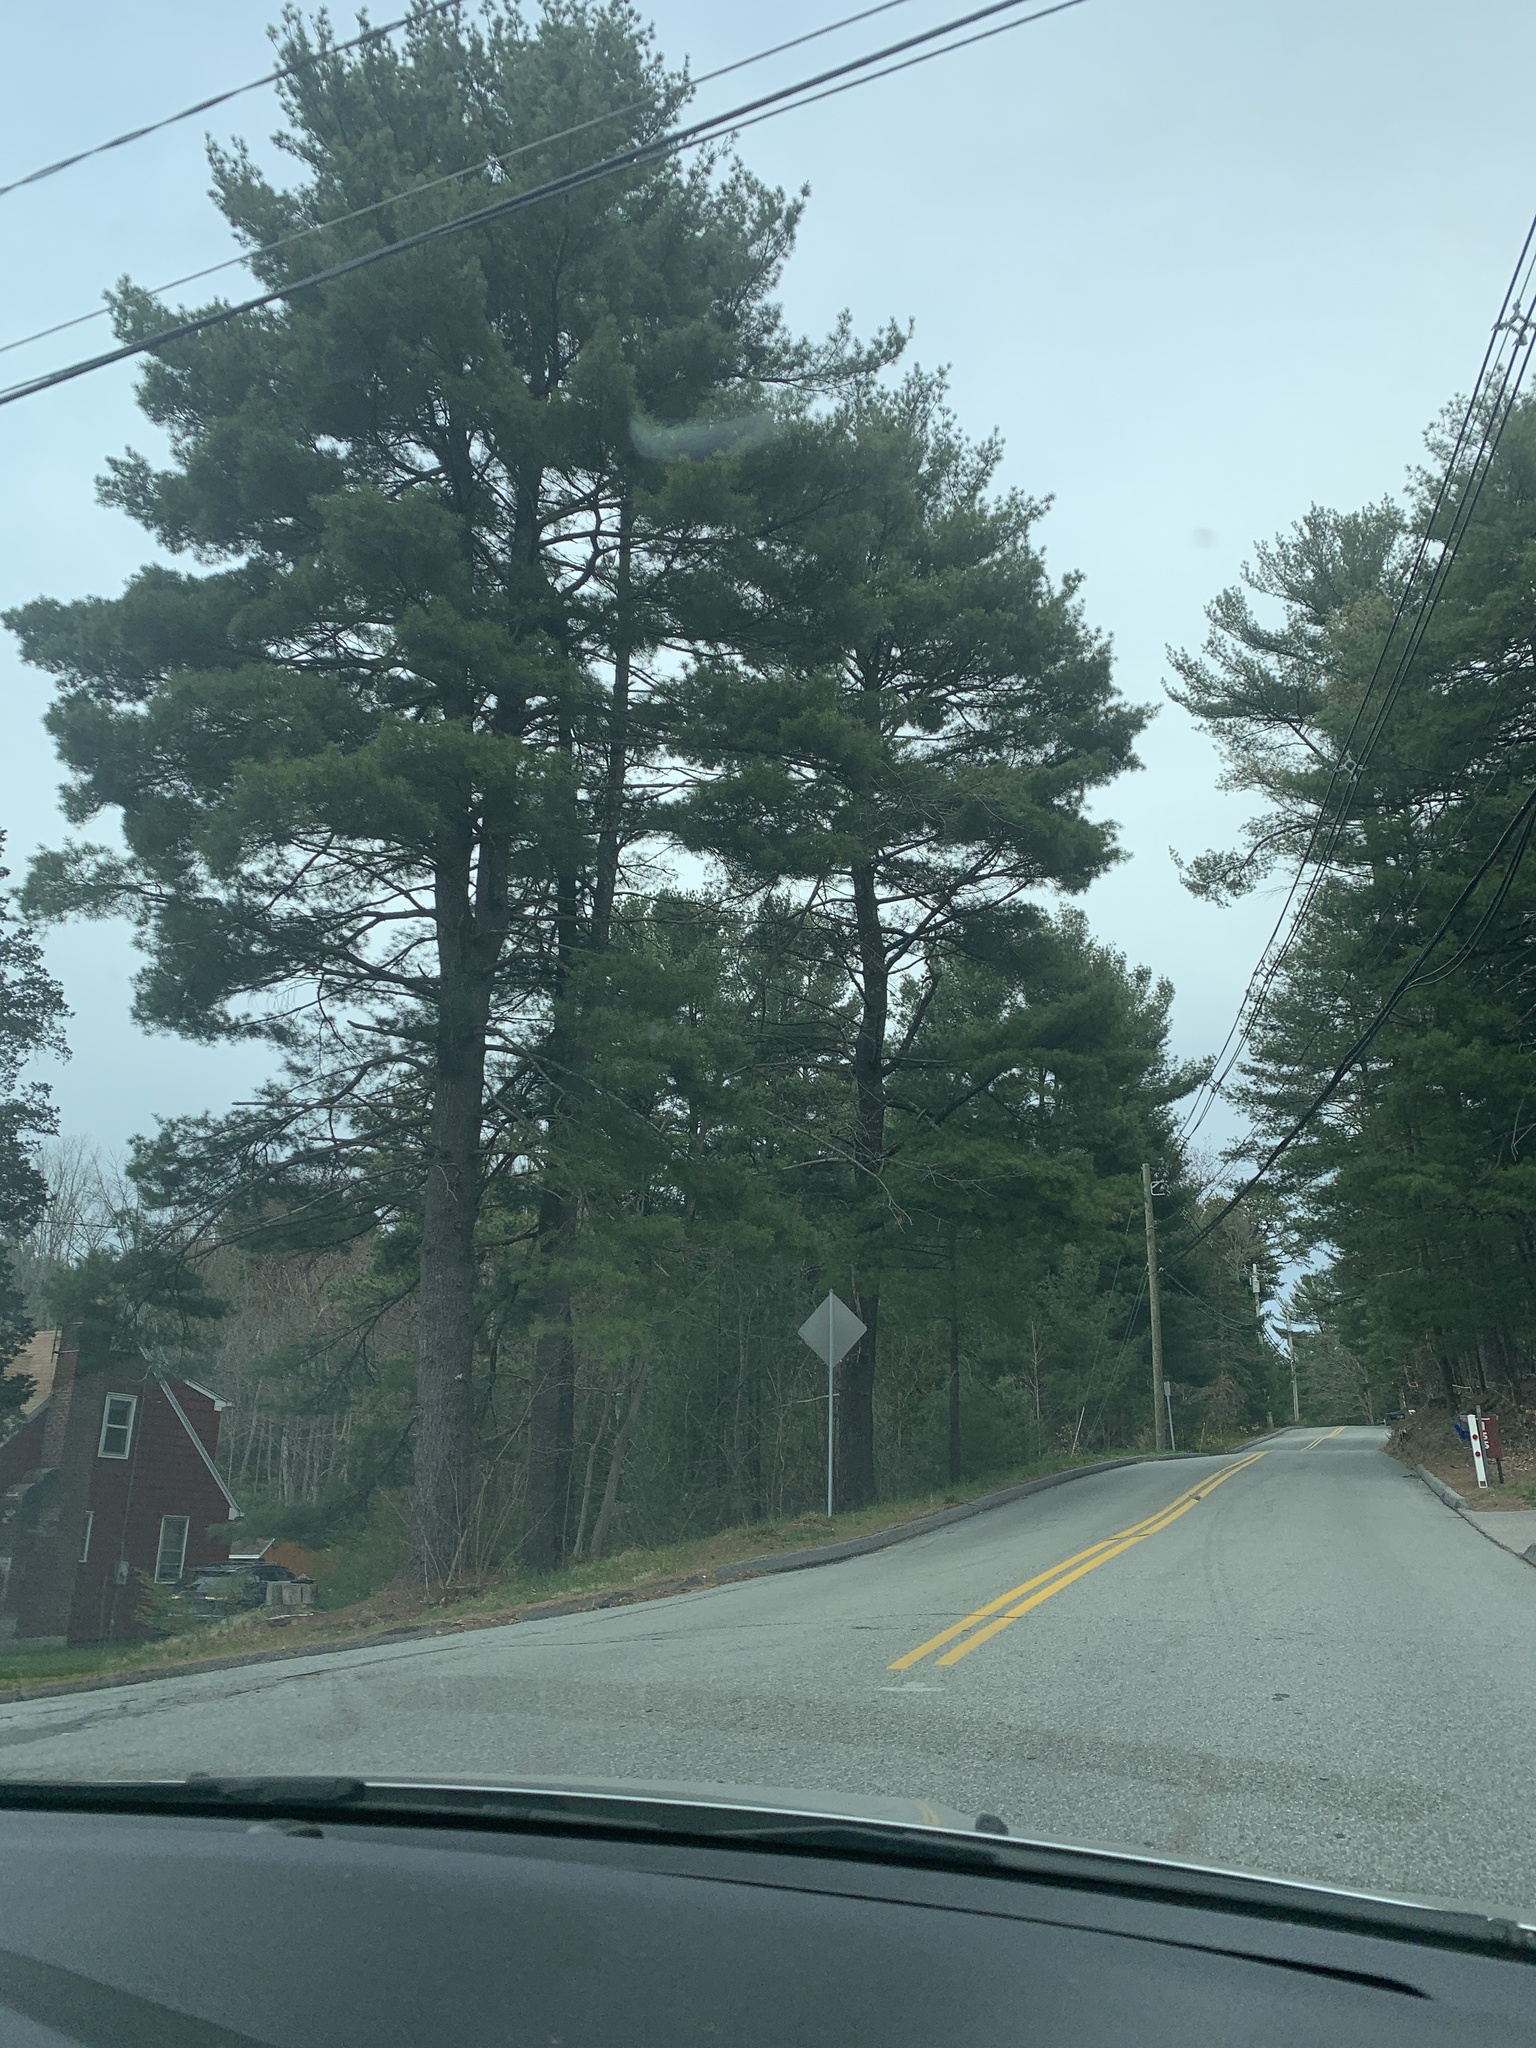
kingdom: Plantae
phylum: Tracheophyta
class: Pinopsida
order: Pinales
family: Pinaceae
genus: Pinus
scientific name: Pinus strobus
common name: Weymouth pine
